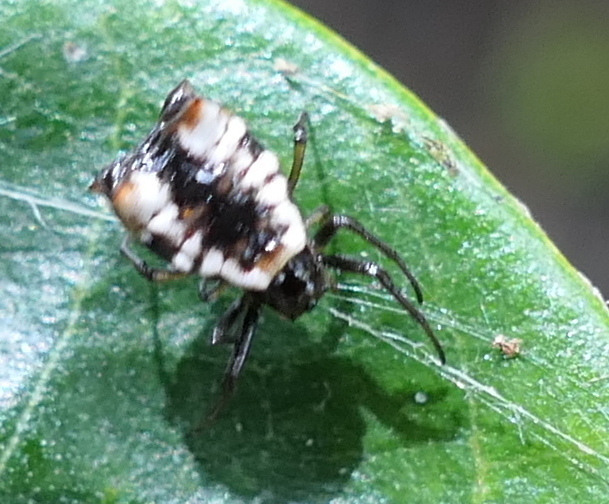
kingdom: Animalia
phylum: Arthropoda
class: Arachnida
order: Araneae
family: Araneidae
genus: Micrathena
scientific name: Micrathena patruelis
